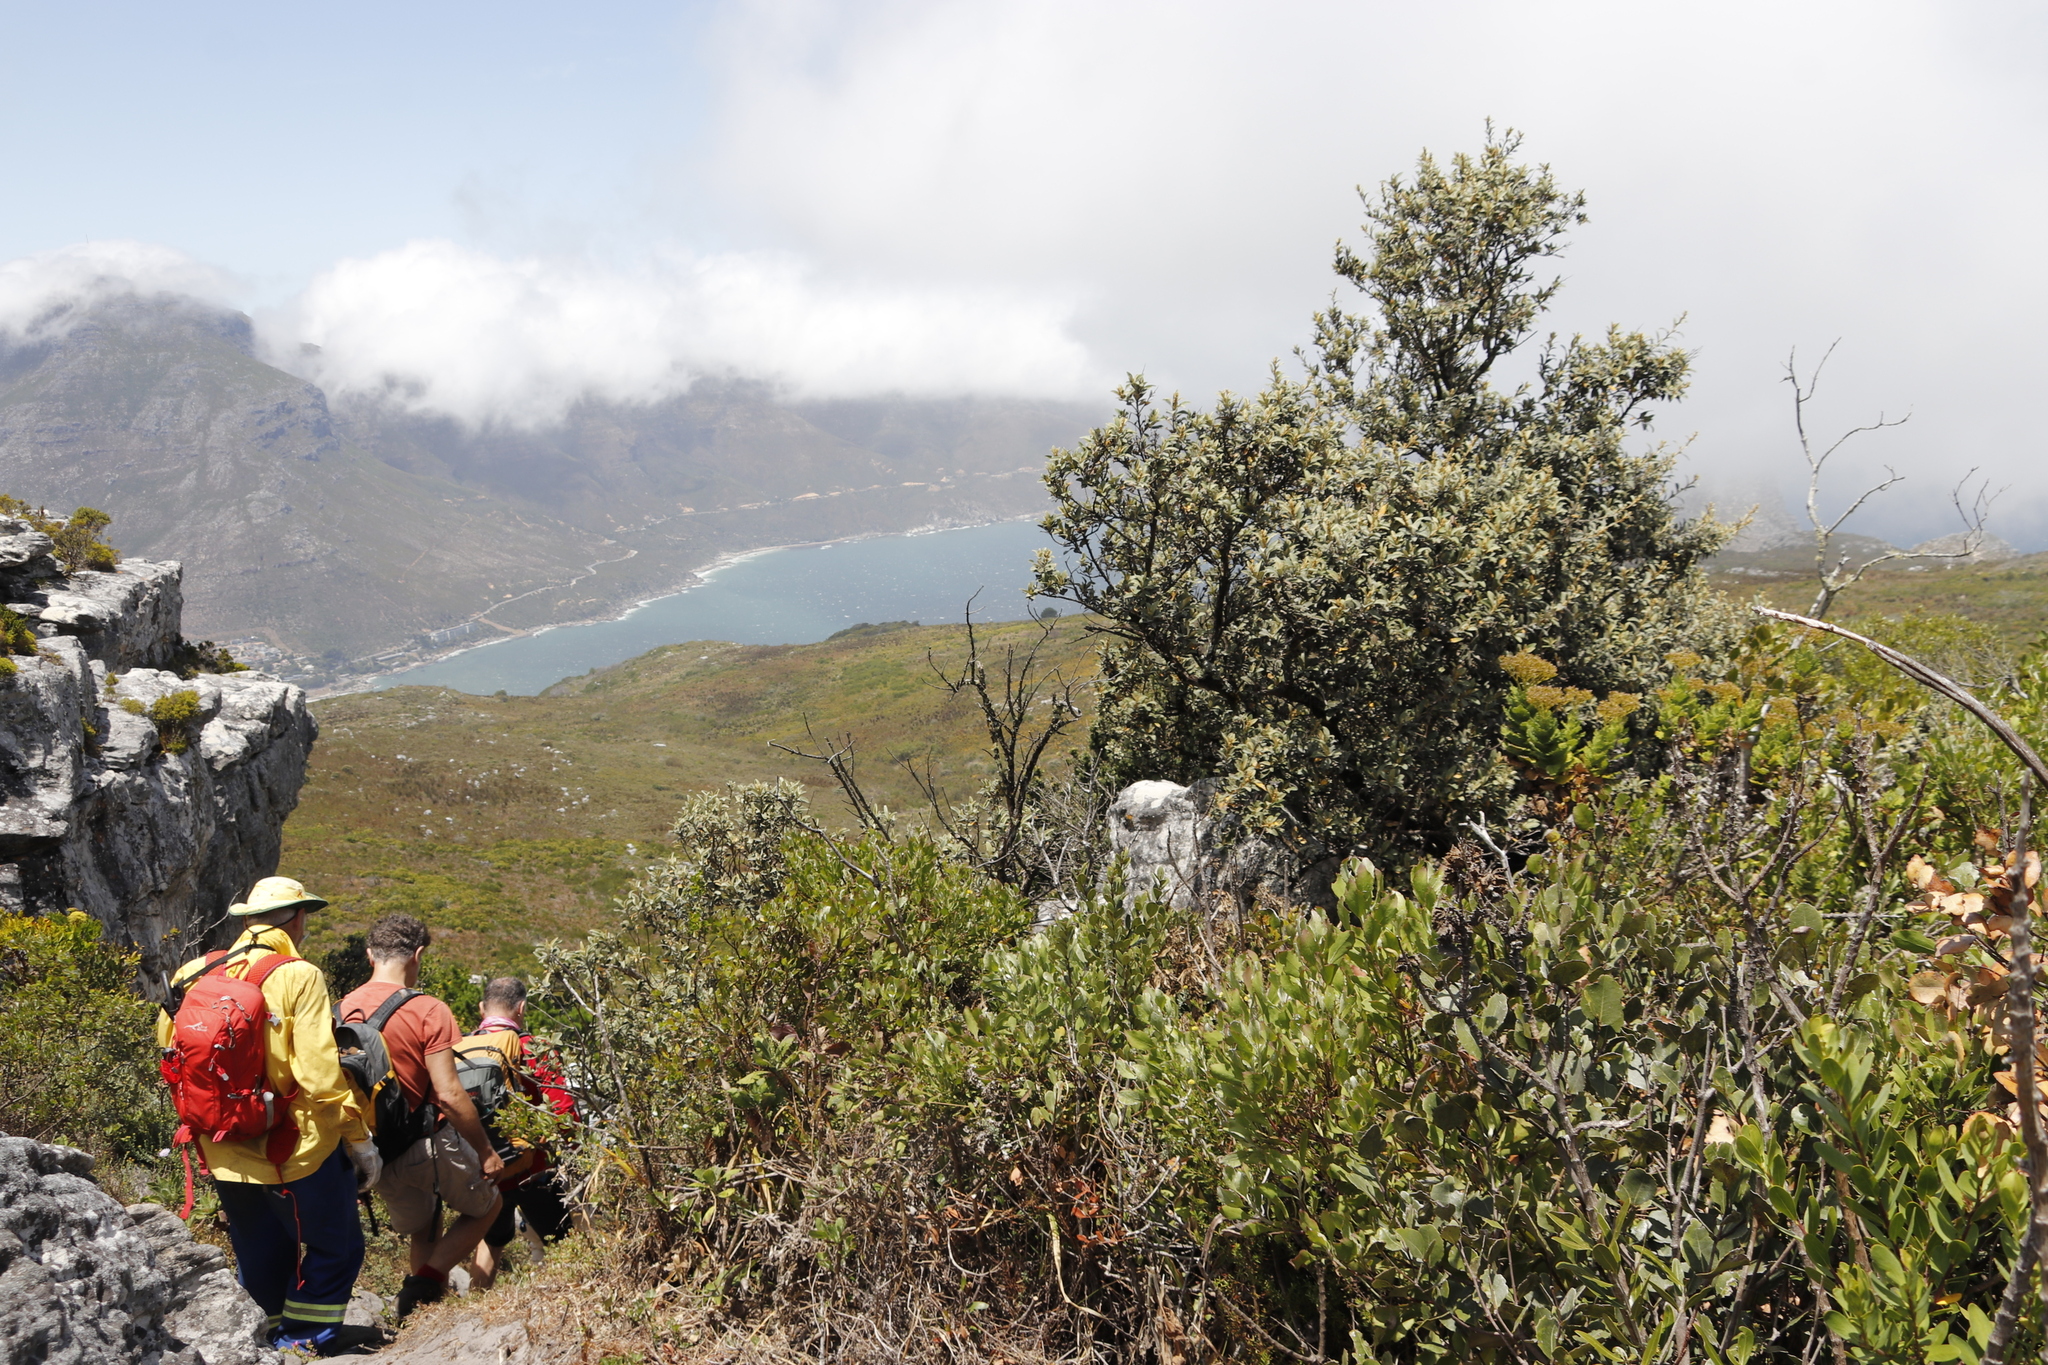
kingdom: Plantae
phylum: Tracheophyta
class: Magnoliopsida
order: Asterales
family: Asteraceae
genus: Tarchonanthus
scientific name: Tarchonanthus littoralis
